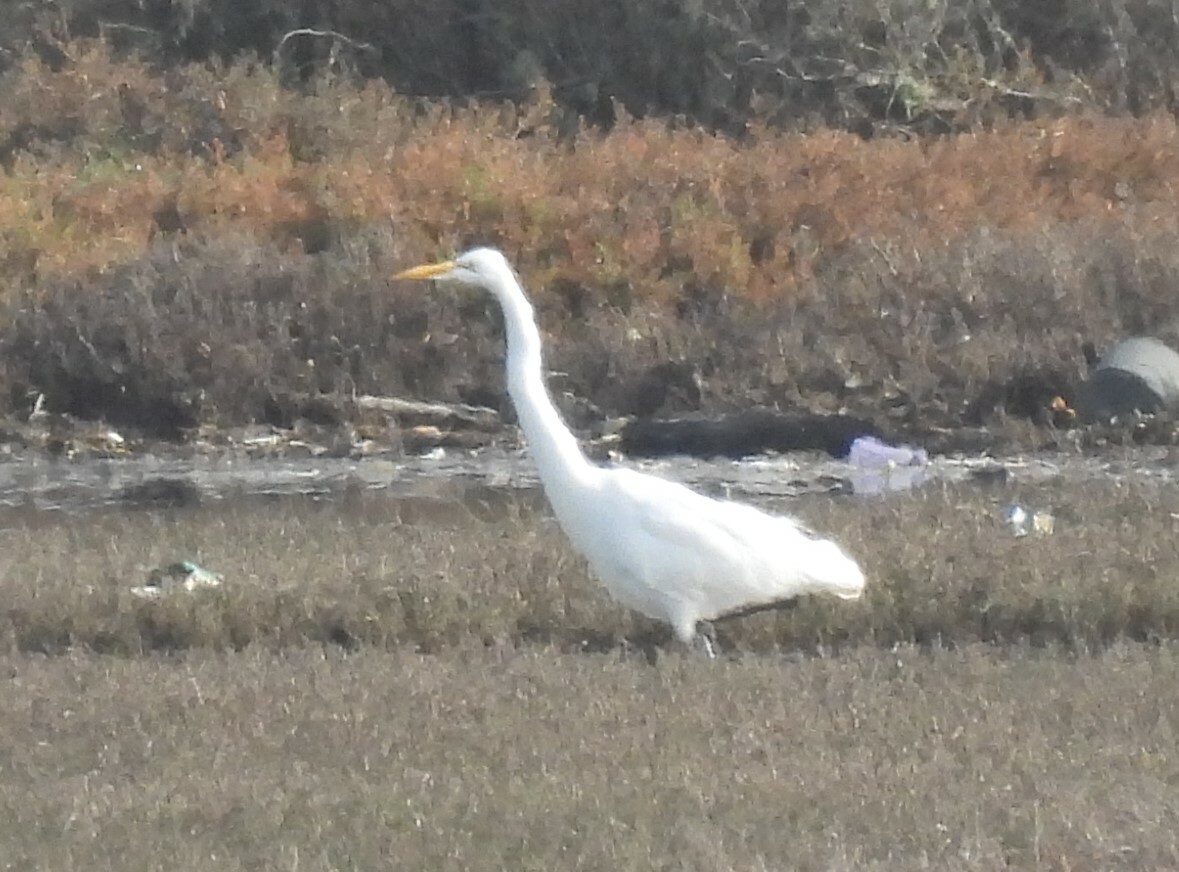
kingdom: Animalia
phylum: Chordata
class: Aves
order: Pelecaniformes
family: Ardeidae
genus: Ardea
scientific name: Ardea alba
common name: Great egret
